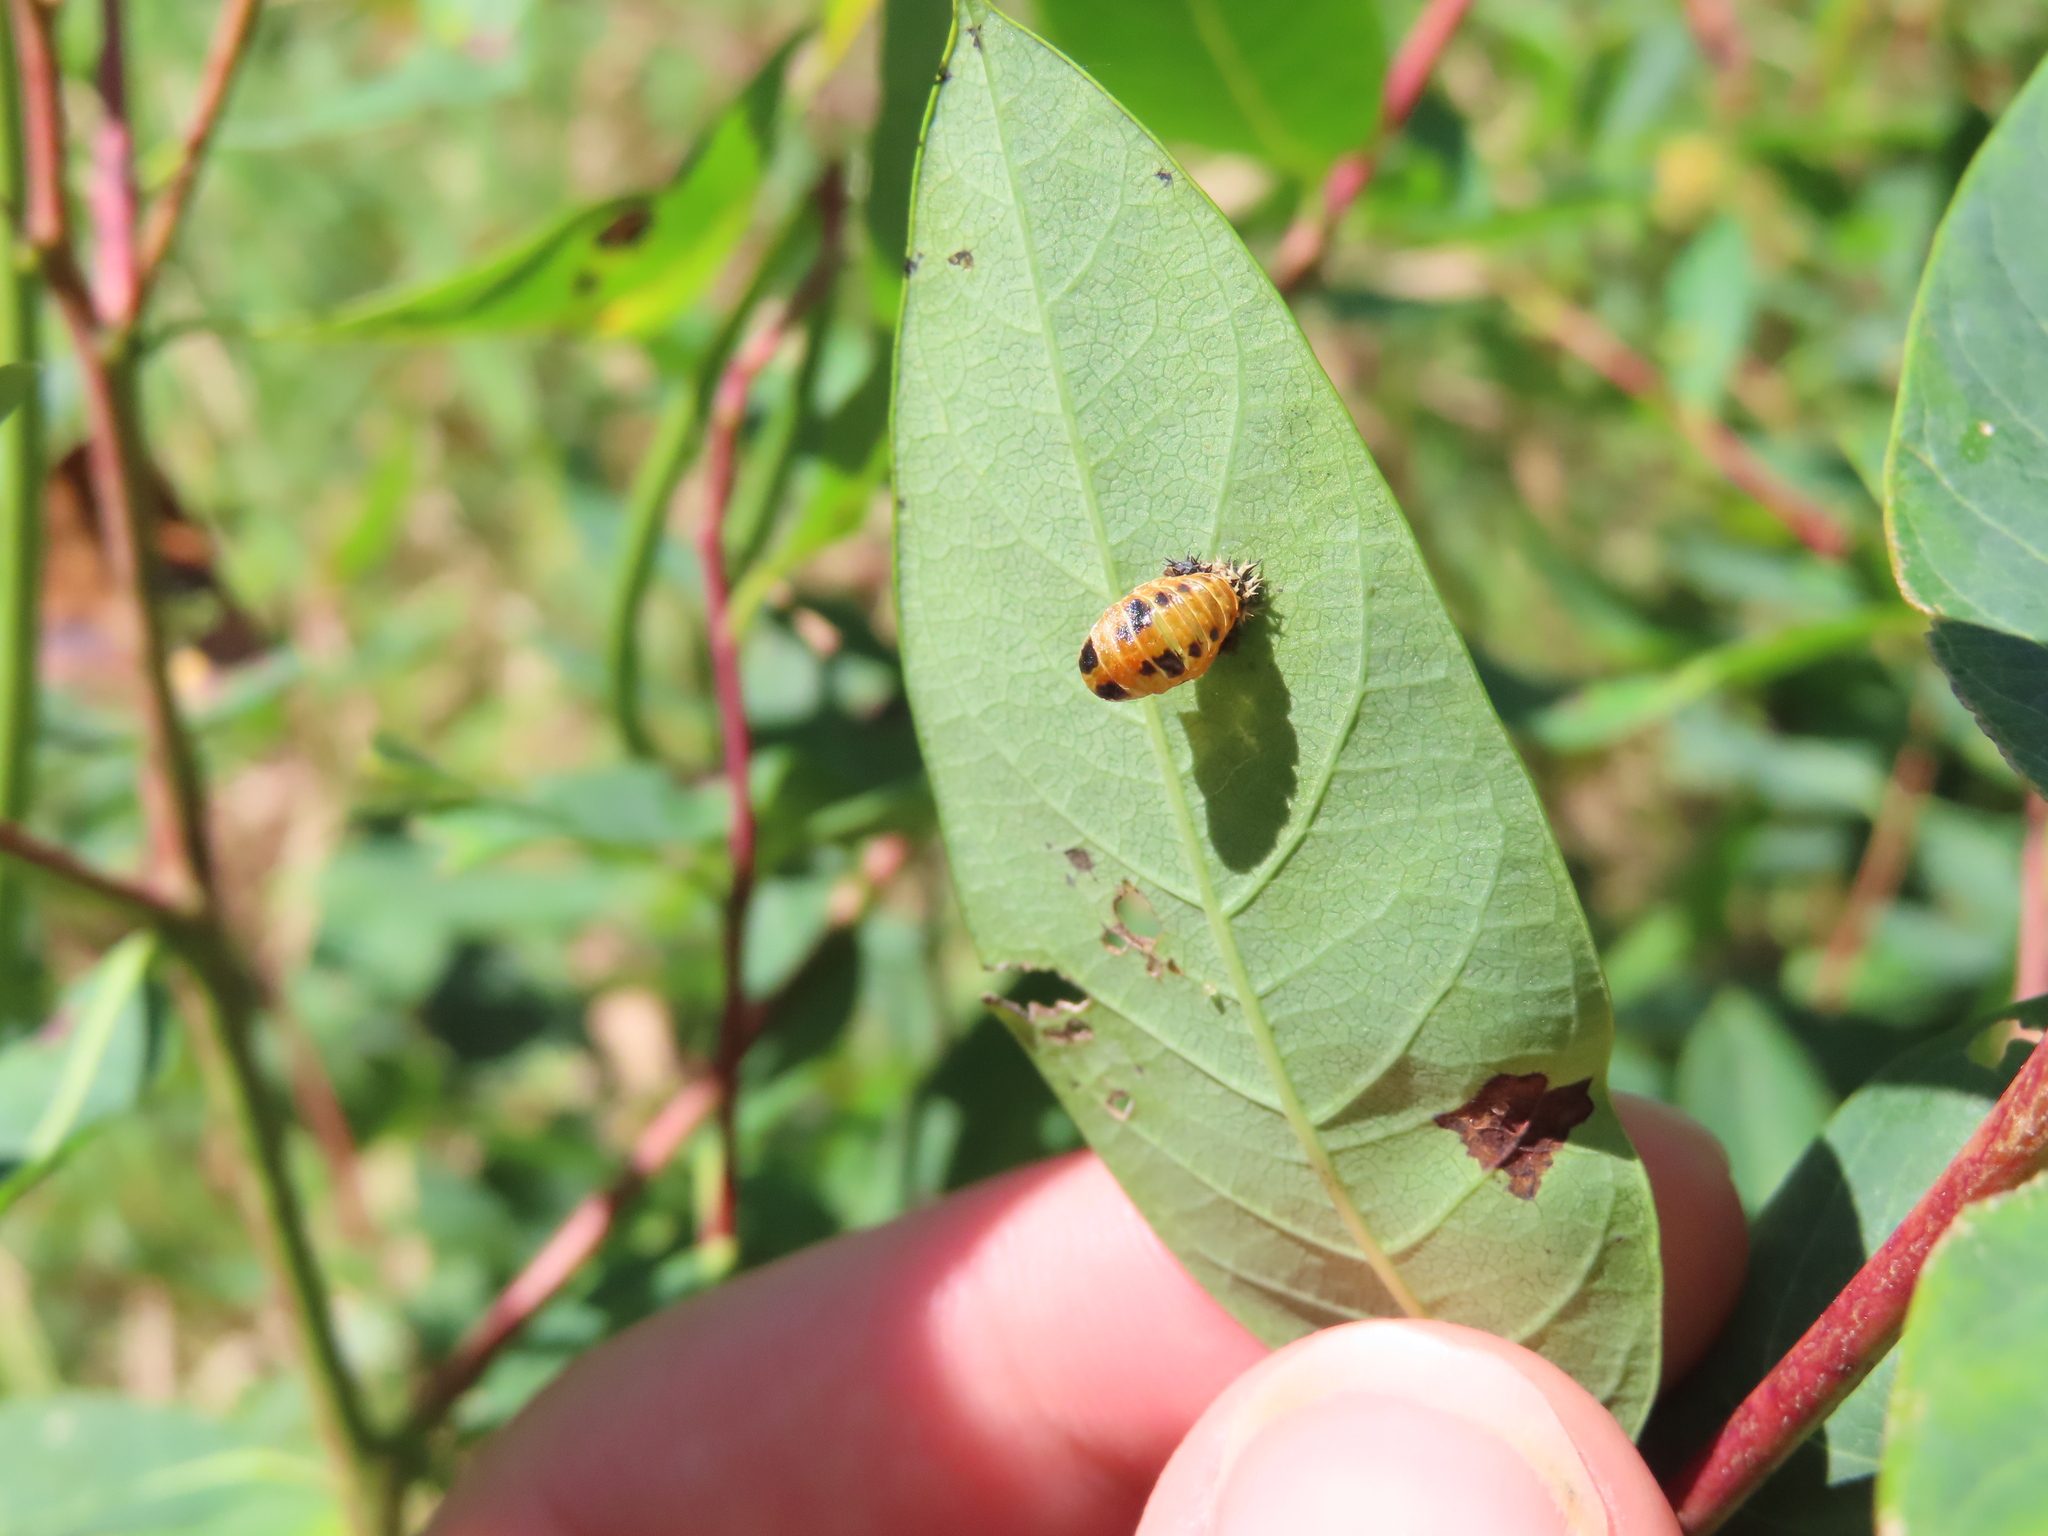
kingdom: Animalia
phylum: Arthropoda
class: Insecta
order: Coleoptera
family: Coccinellidae
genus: Harmonia
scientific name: Harmonia axyridis
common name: Harlequin ladybird
